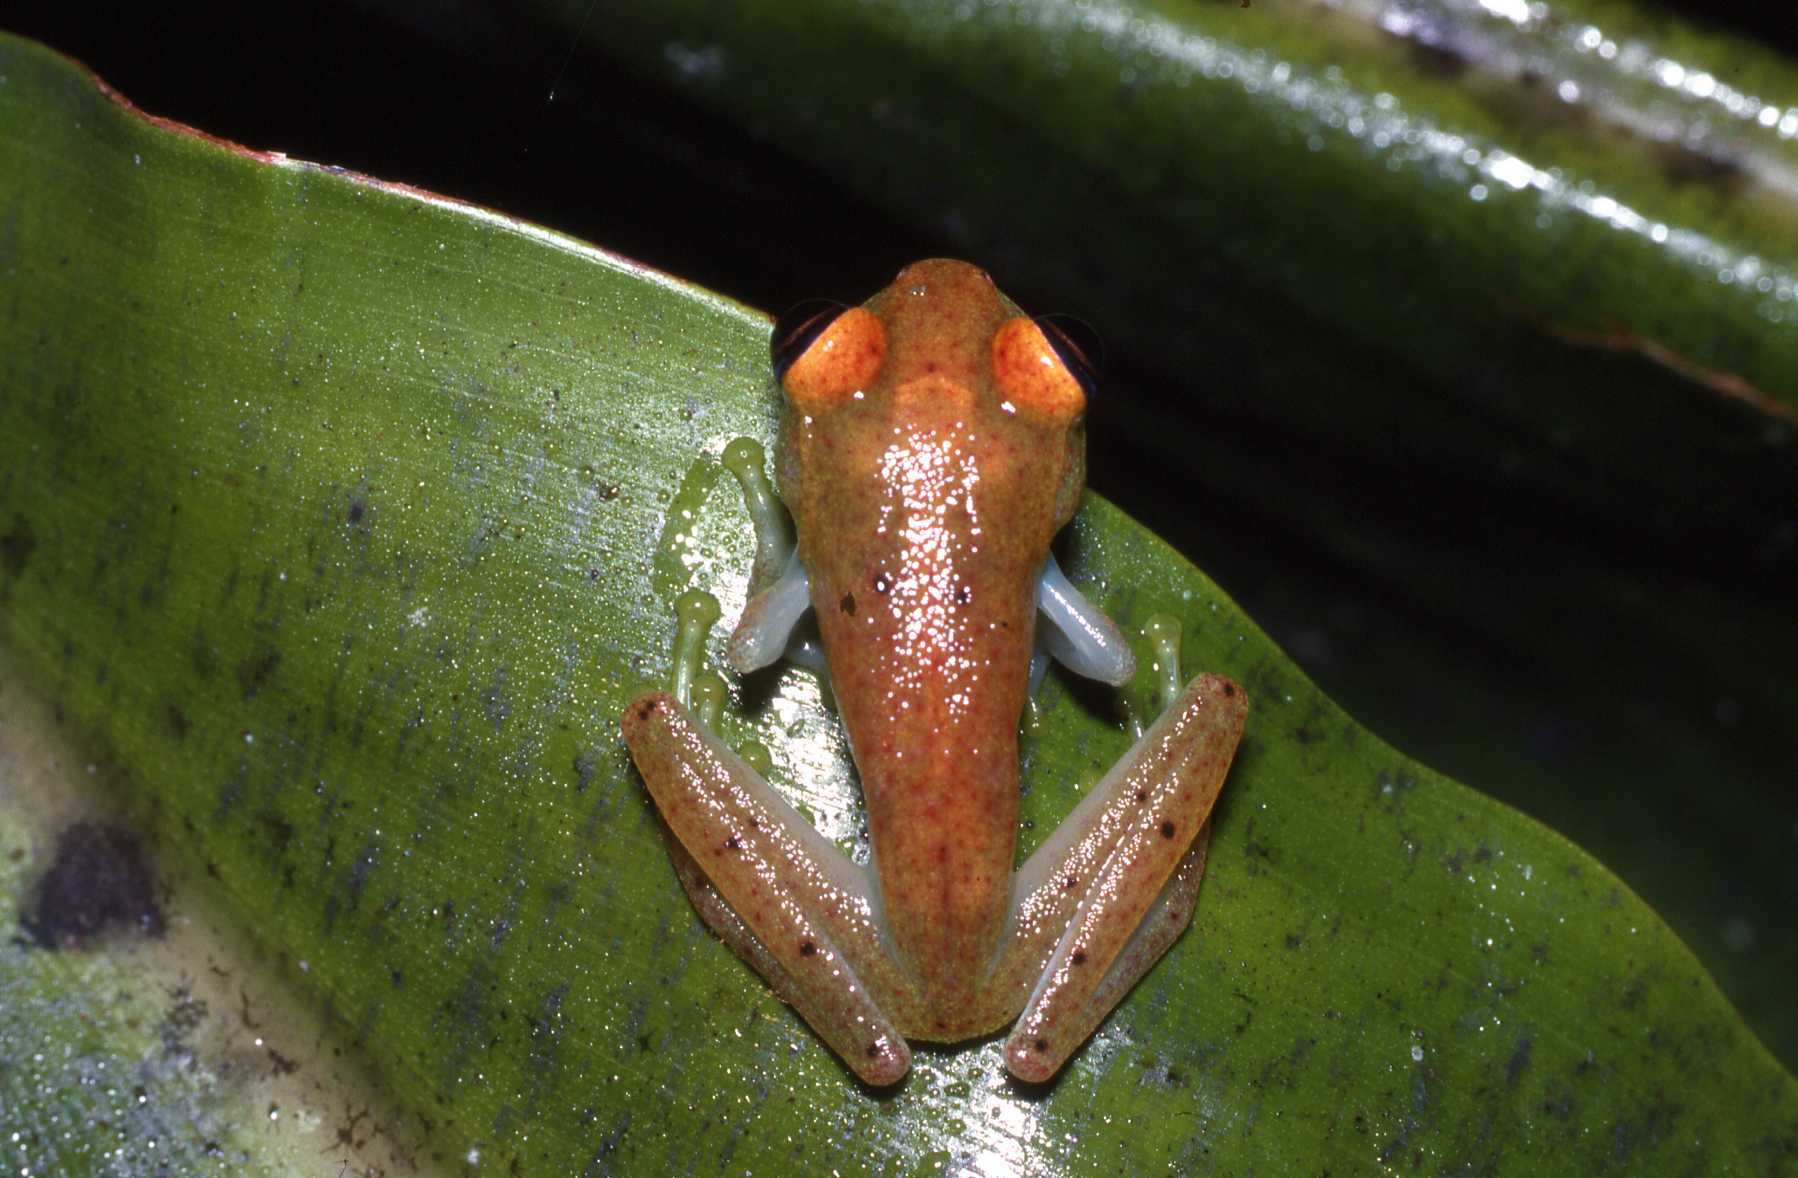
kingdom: Animalia
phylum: Chordata
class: Amphibia
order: Anura
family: Mantellidae
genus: Boophis
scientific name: Boophis viridis
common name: Green bright-eyed frog
